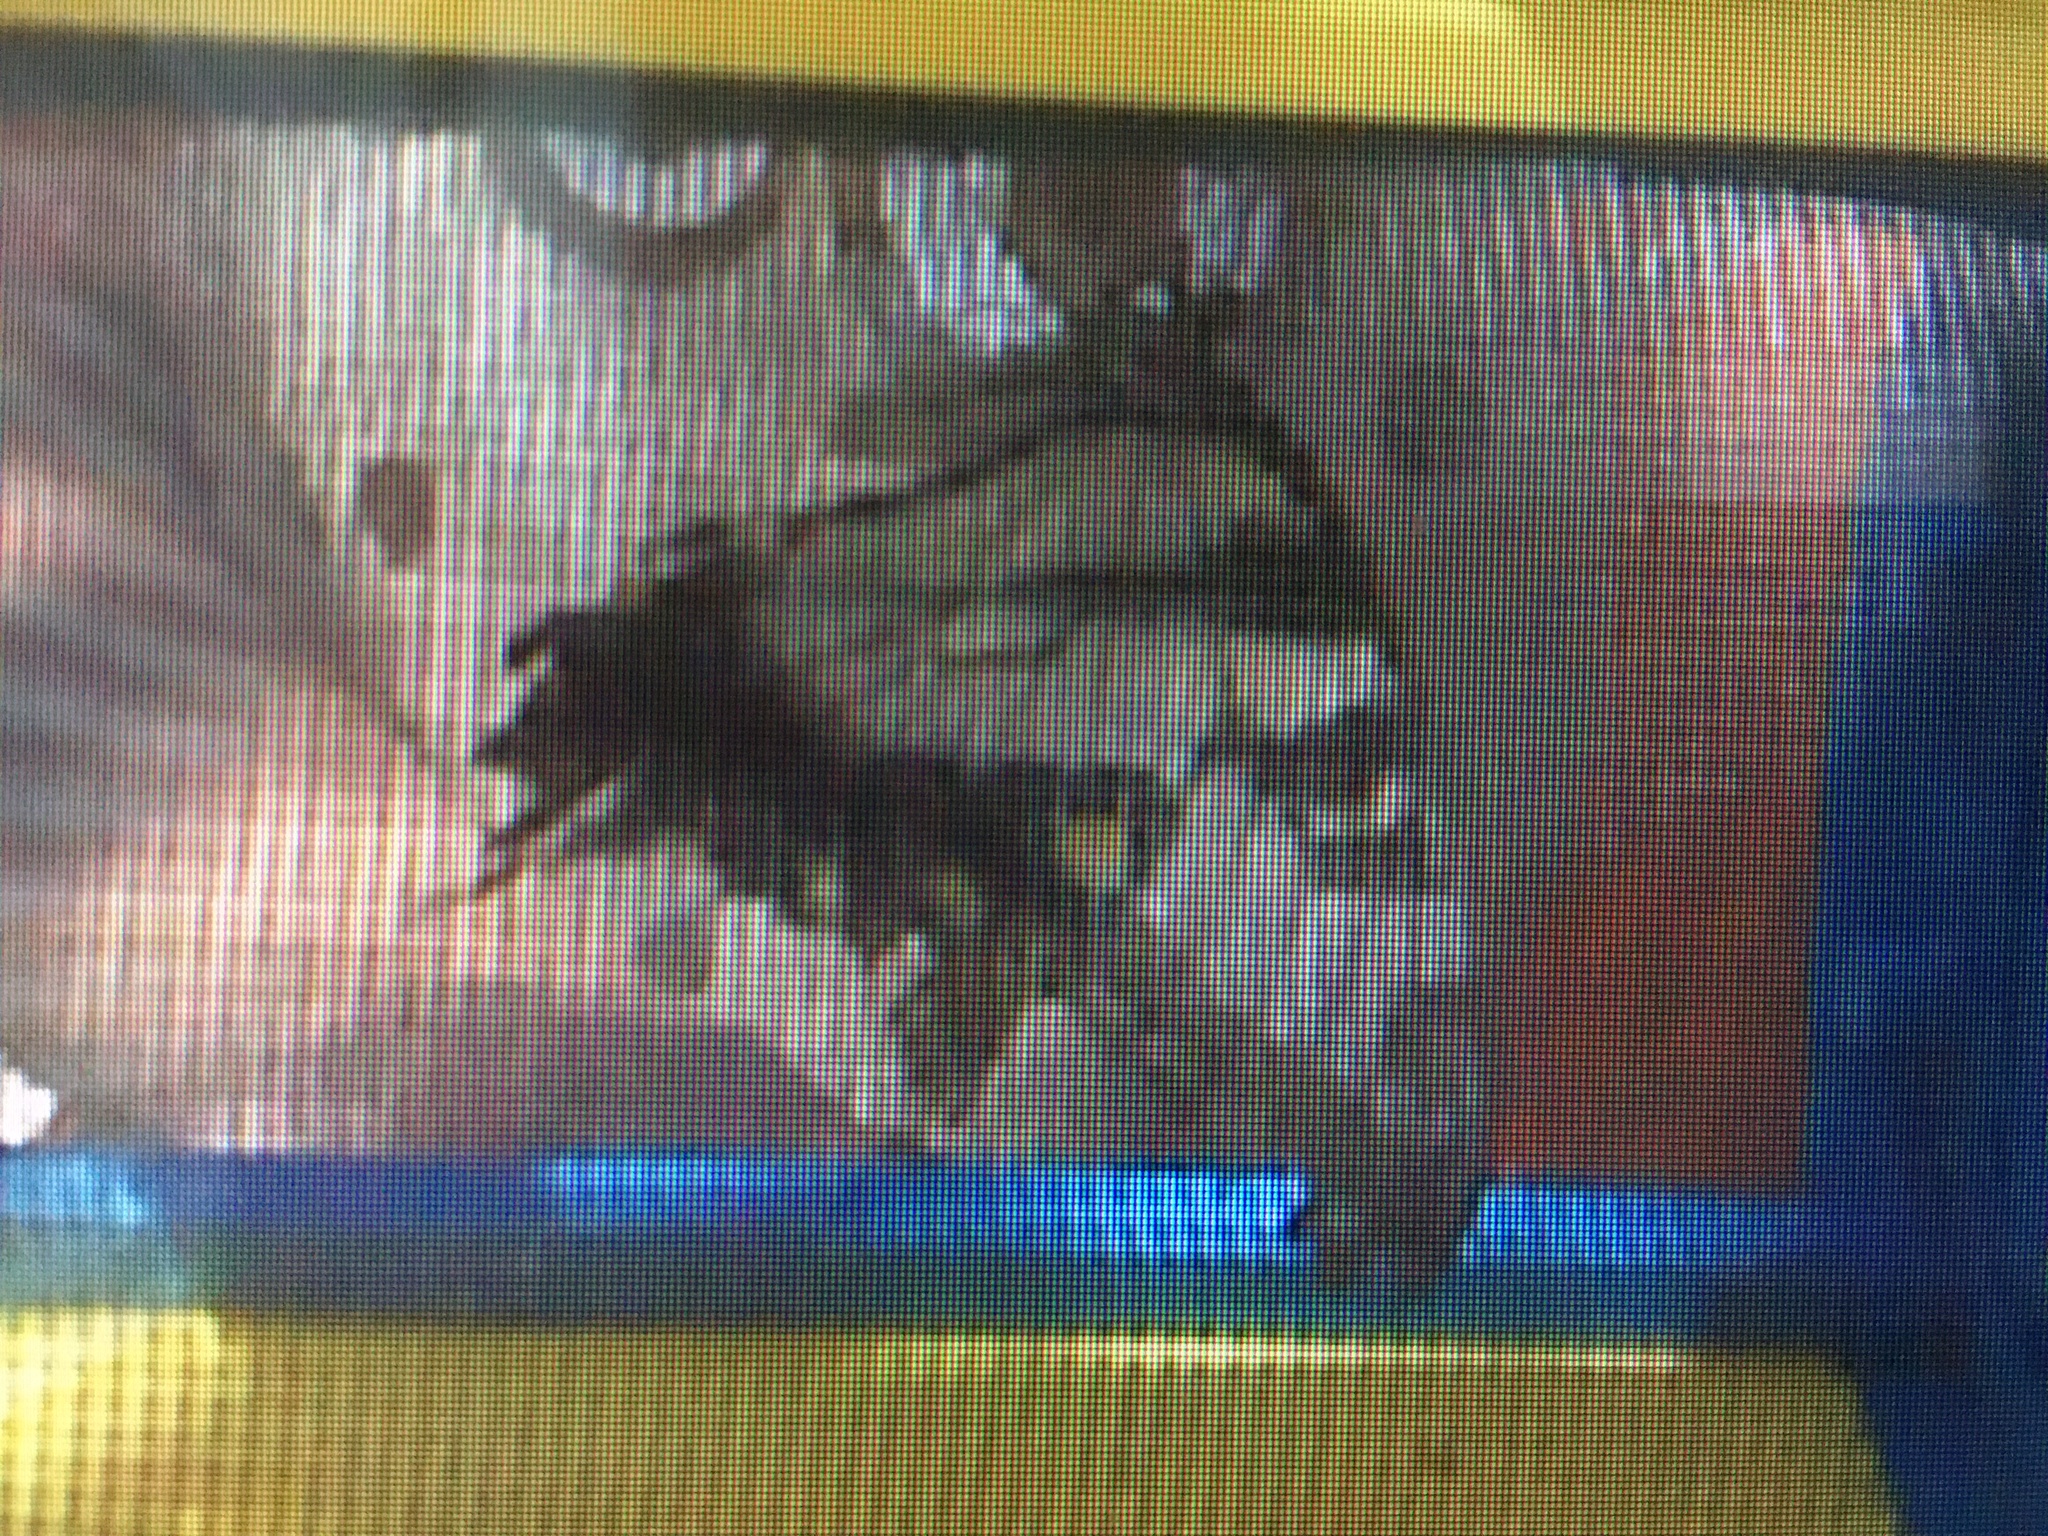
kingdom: Animalia
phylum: Arthropoda
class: Insecta
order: Lepidoptera
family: Papilionidae
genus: Papilio
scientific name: Papilio glaucus
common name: Tiger swallowtail
